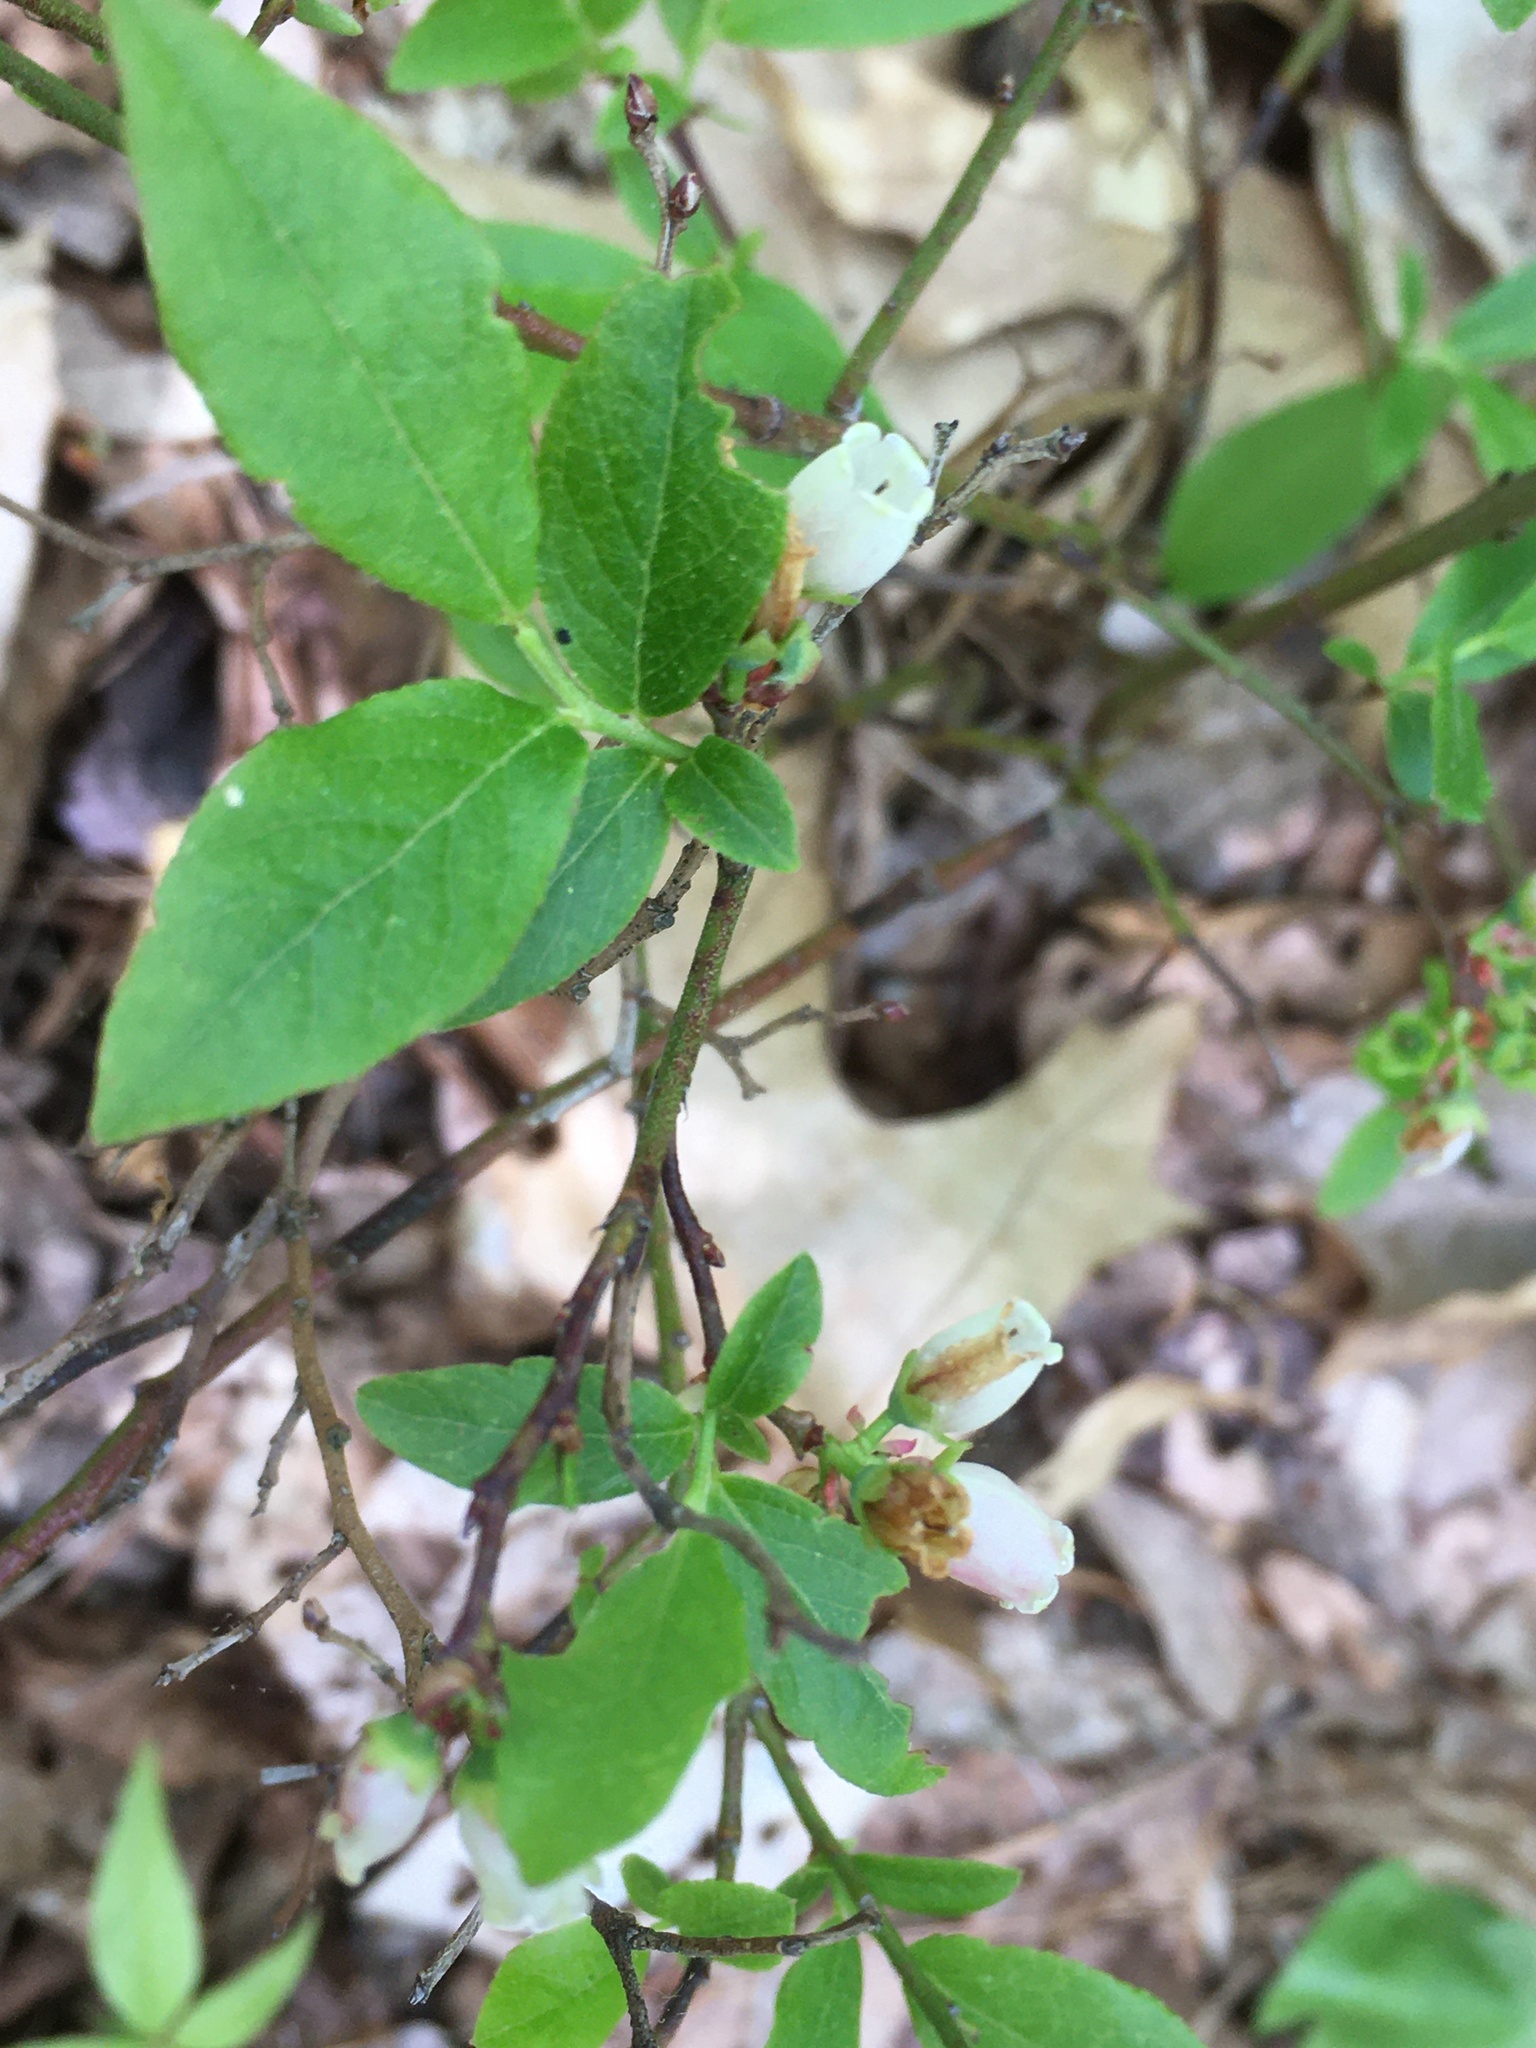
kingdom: Plantae
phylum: Tracheophyta
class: Magnoliopsida
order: Ericales
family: Ericaceae
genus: Vaccinium
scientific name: Vaccinium angustifolium
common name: Early lowbush blueberry
